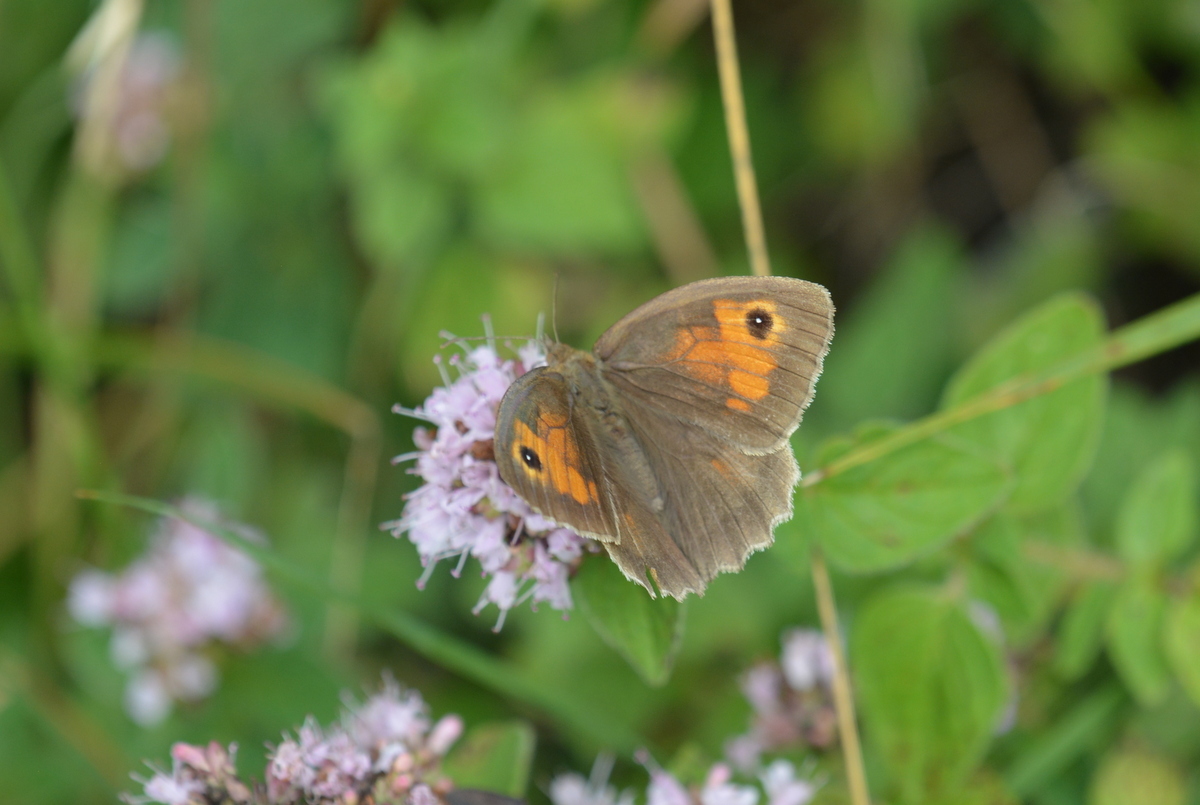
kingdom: Animalia
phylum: Arthropoda
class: Insecta
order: Lepidoptera
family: Nymphalidae
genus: Maniola
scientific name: Maniola jurtina
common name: Meadow brown
